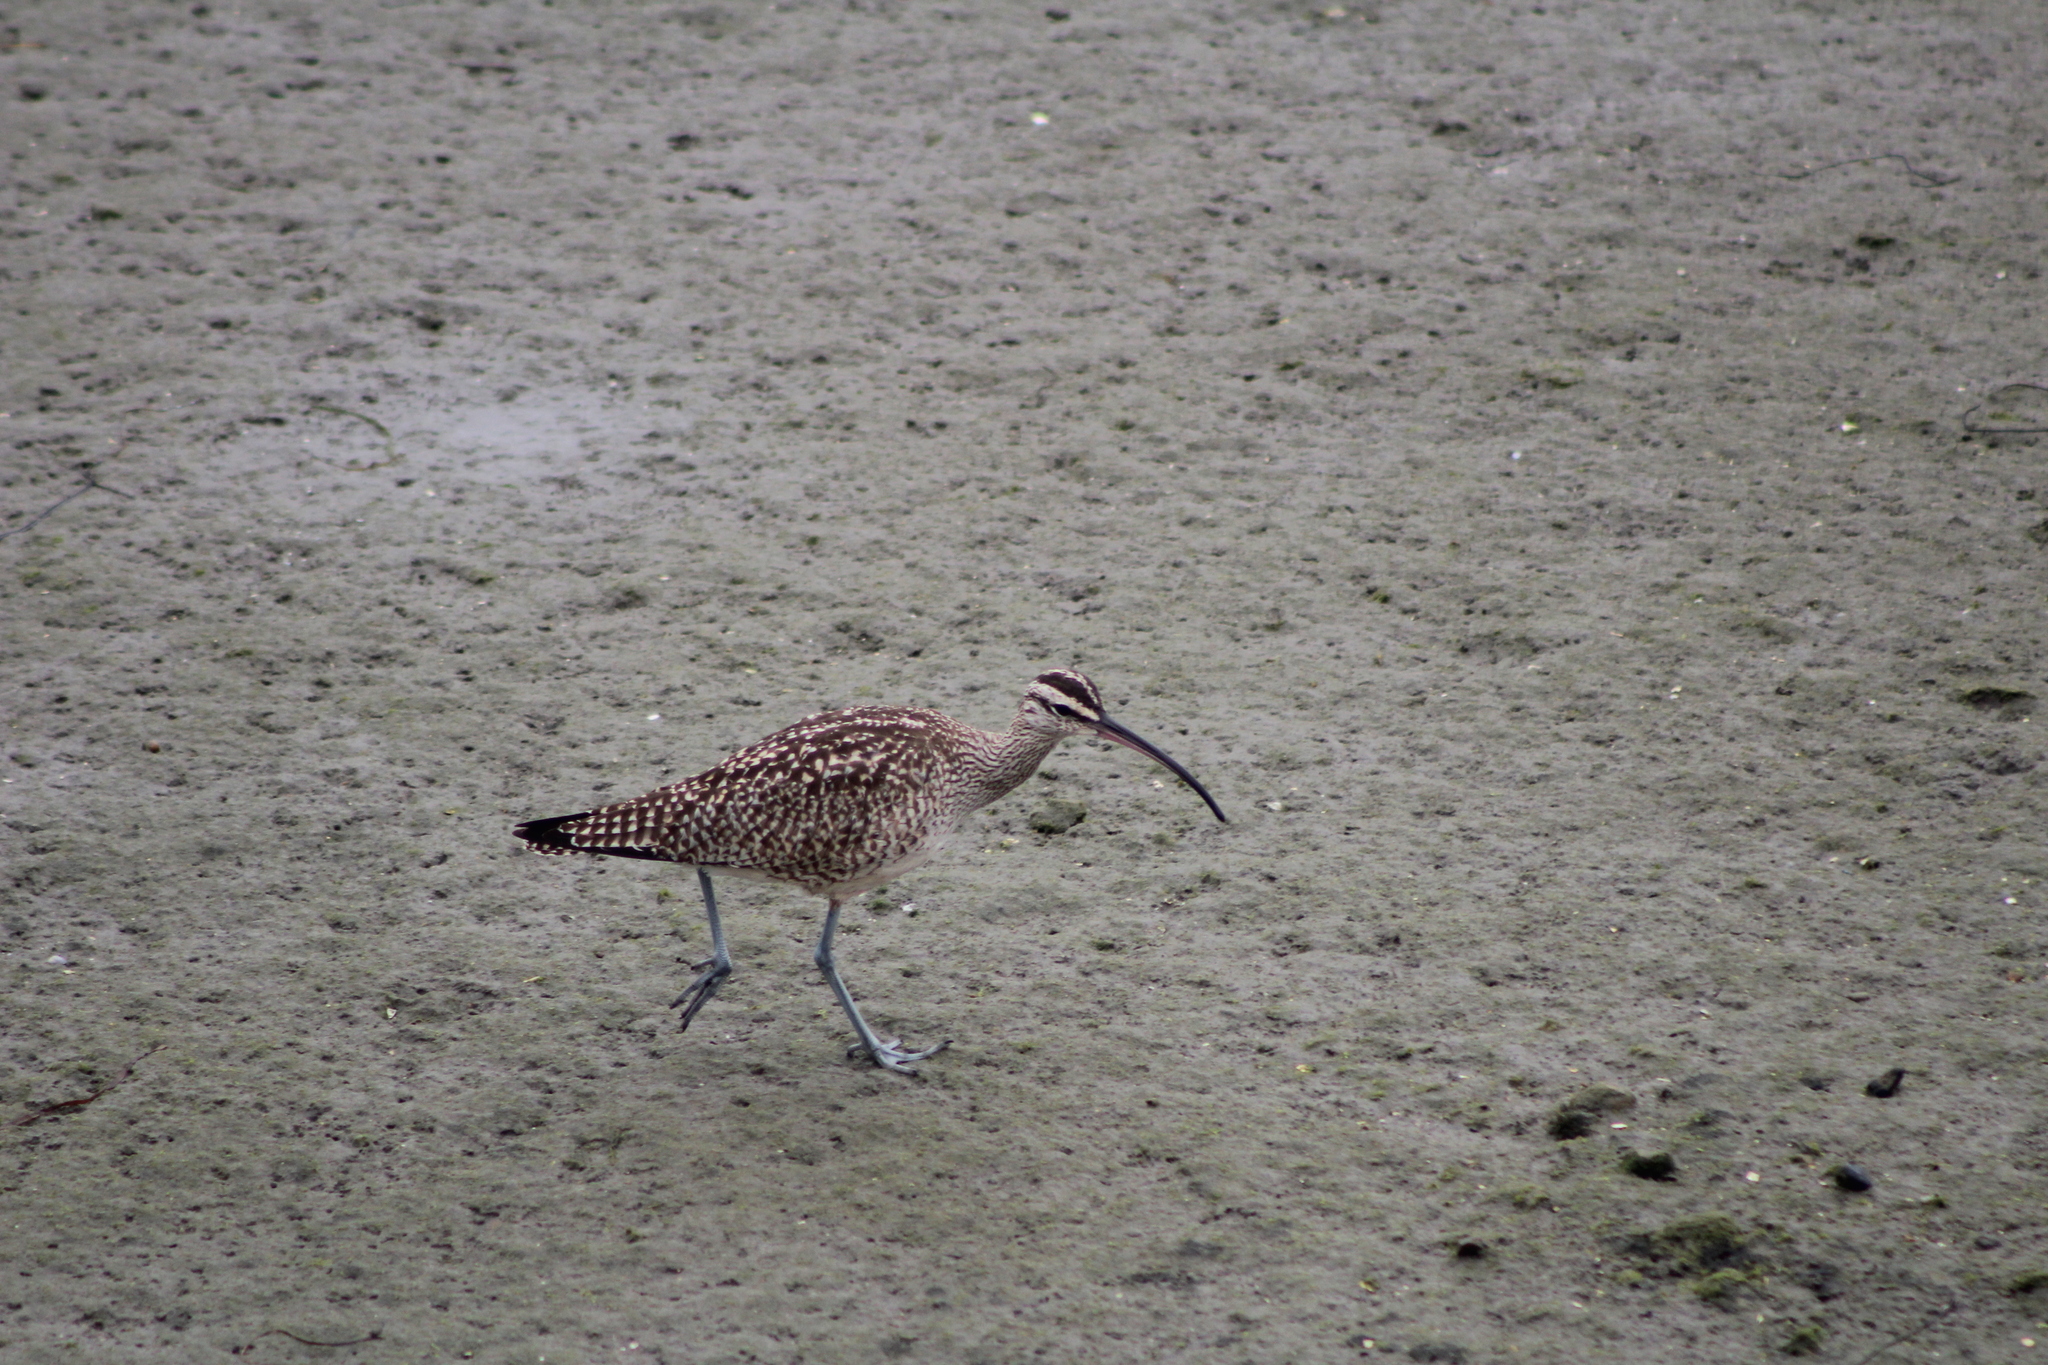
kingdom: Animalia
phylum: Chordata
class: Aves
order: Charadriiformes
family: Scolopacidae
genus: Numenius
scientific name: Numenius phaeopus
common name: Whimbrel
